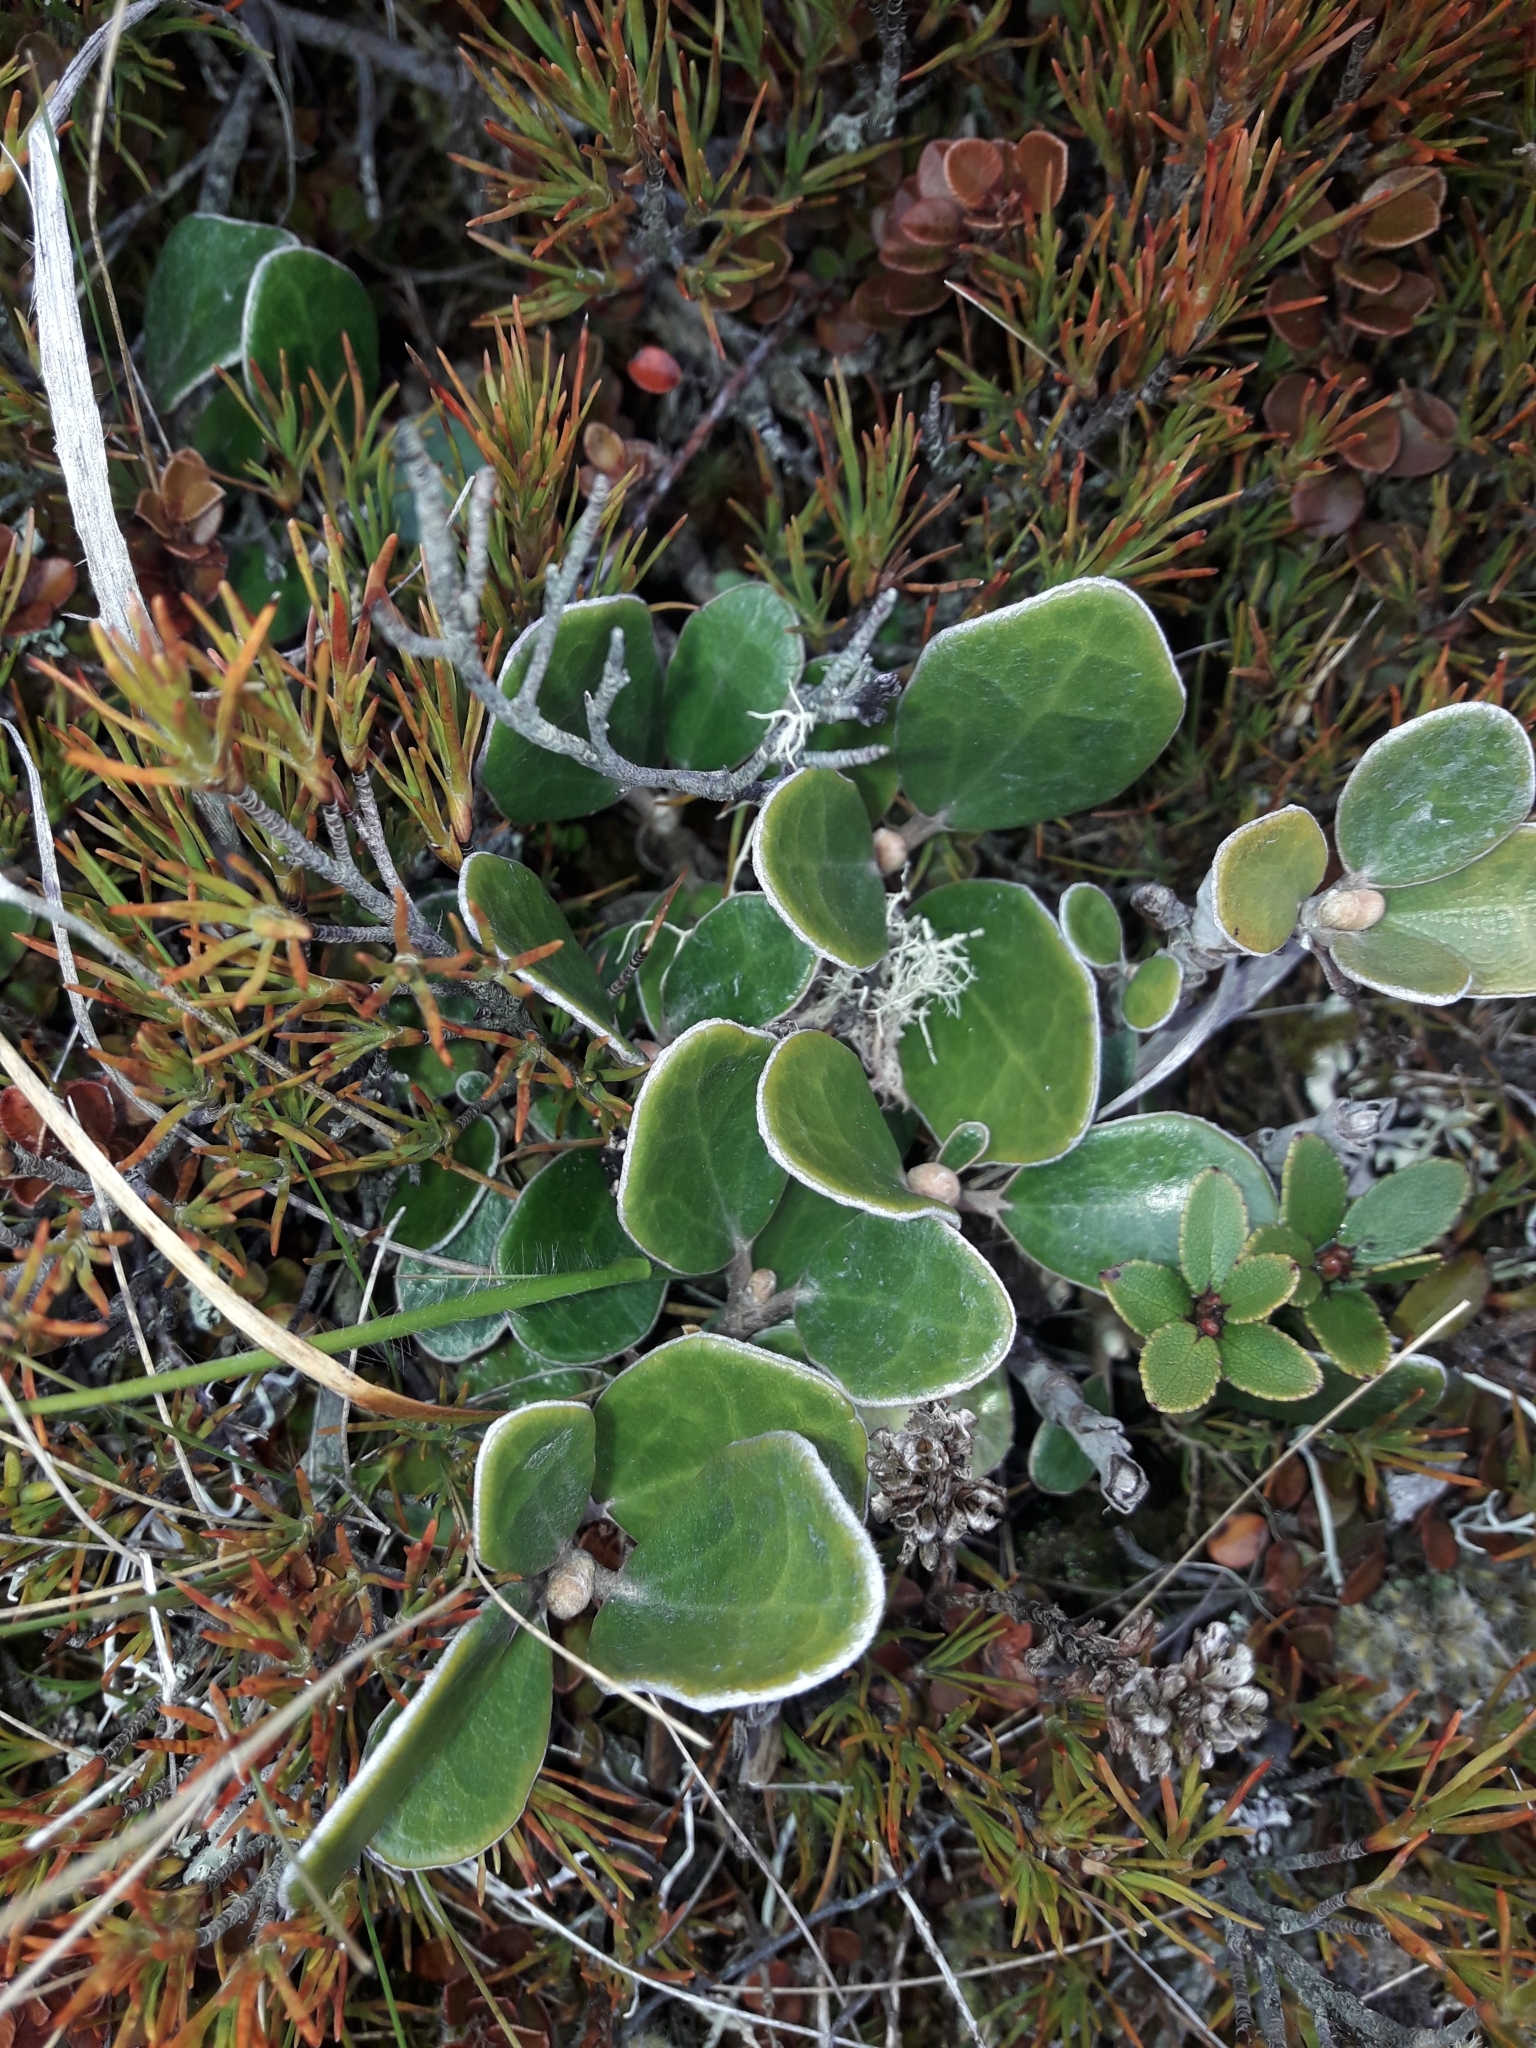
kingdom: Plantae
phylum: Tracheophyta
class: Magnoliopsida
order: Asterales
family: Asteraceae
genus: Brachyglottis
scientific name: Brachyglottis bidwillii
